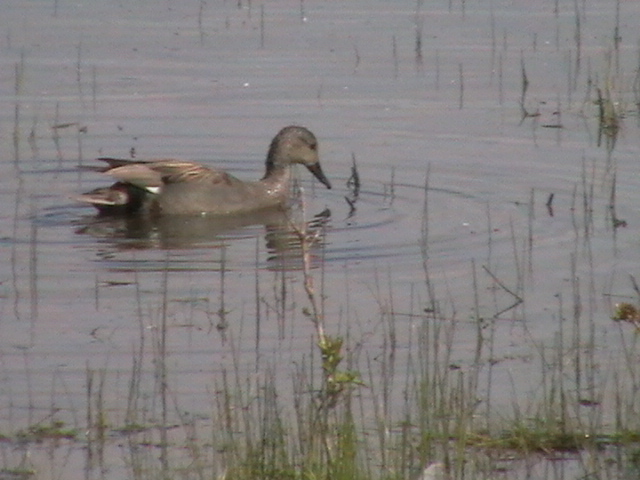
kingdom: Animalia
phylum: Chordata
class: Aves
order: Anseriformes
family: Anatidae
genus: Mareca
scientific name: Mareca strepera
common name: Gadwall
